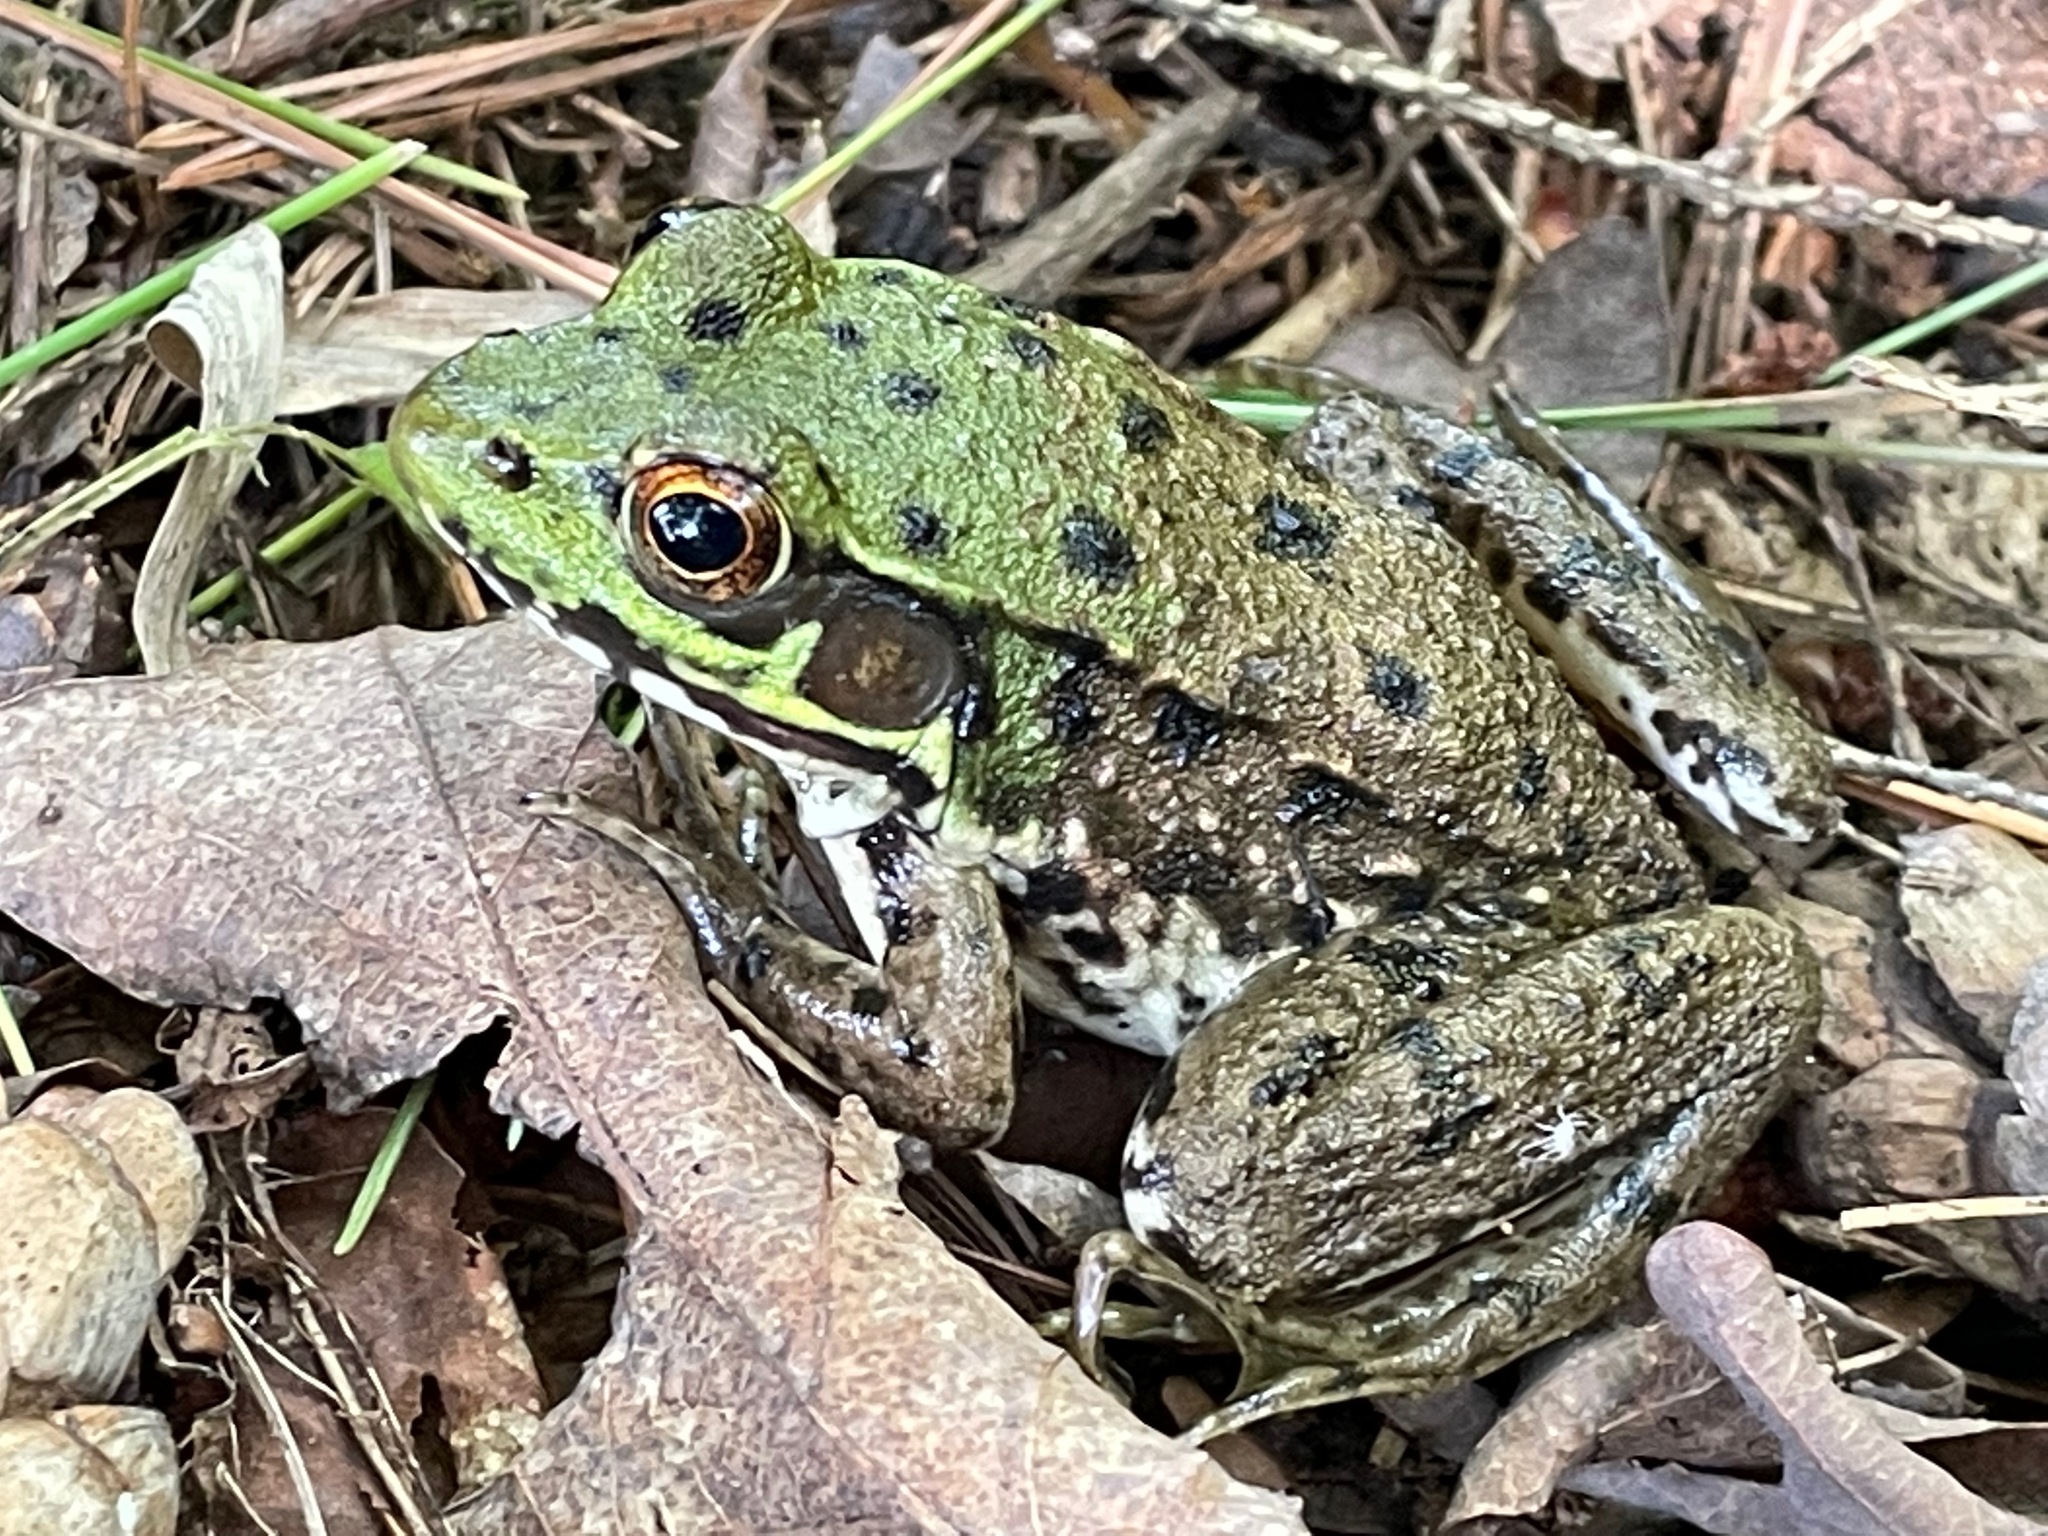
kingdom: Animalia
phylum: Chordata
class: Amphibia
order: Anura
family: Ranidae
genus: Lithobates
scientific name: Lithobates clamitans
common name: Green frog
